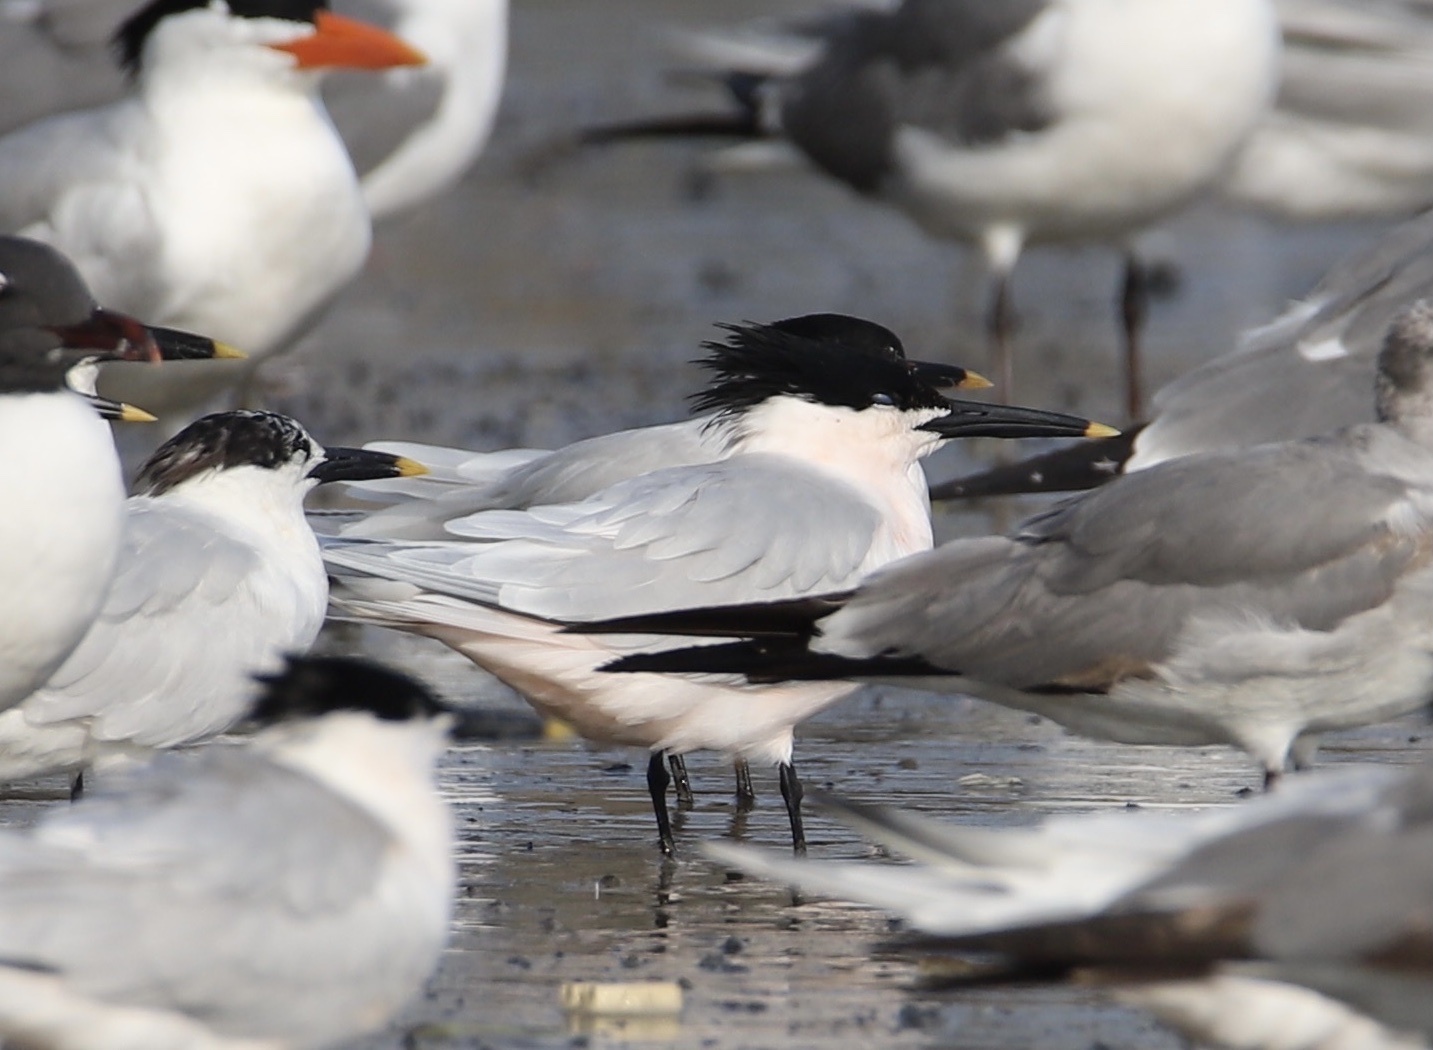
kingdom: Animalia
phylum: Chordata
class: Aves
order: Charadriiformes
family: Laridae
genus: Thalasseus
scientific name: Thalasseus sandvicensis
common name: Sandwich tern
